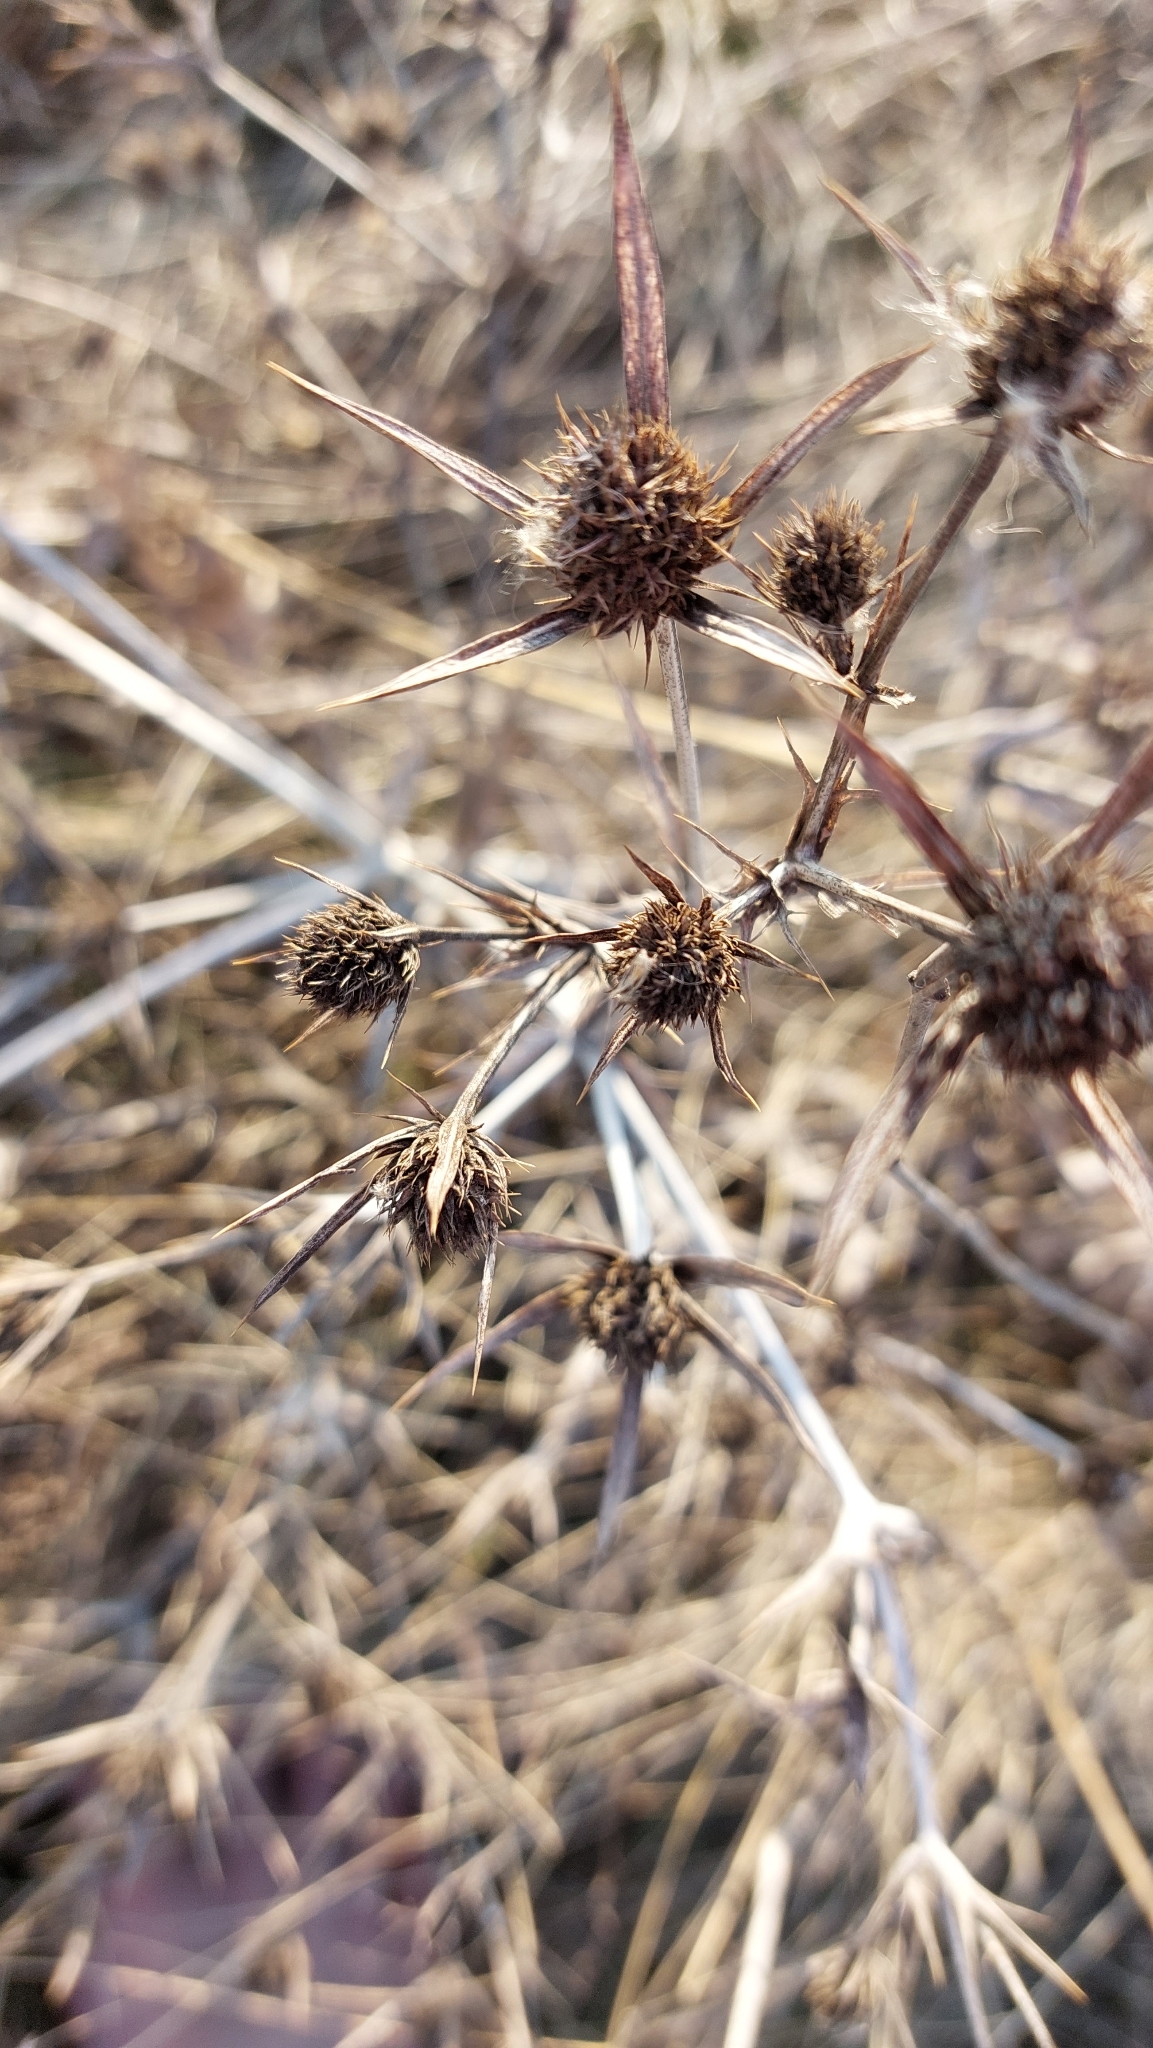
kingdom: Plantae
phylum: Tracheophyta
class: Magnoliopsida
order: Apiales
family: Apiaceae
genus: Eryngium
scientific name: Eryngium campestre
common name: Field eryngo
